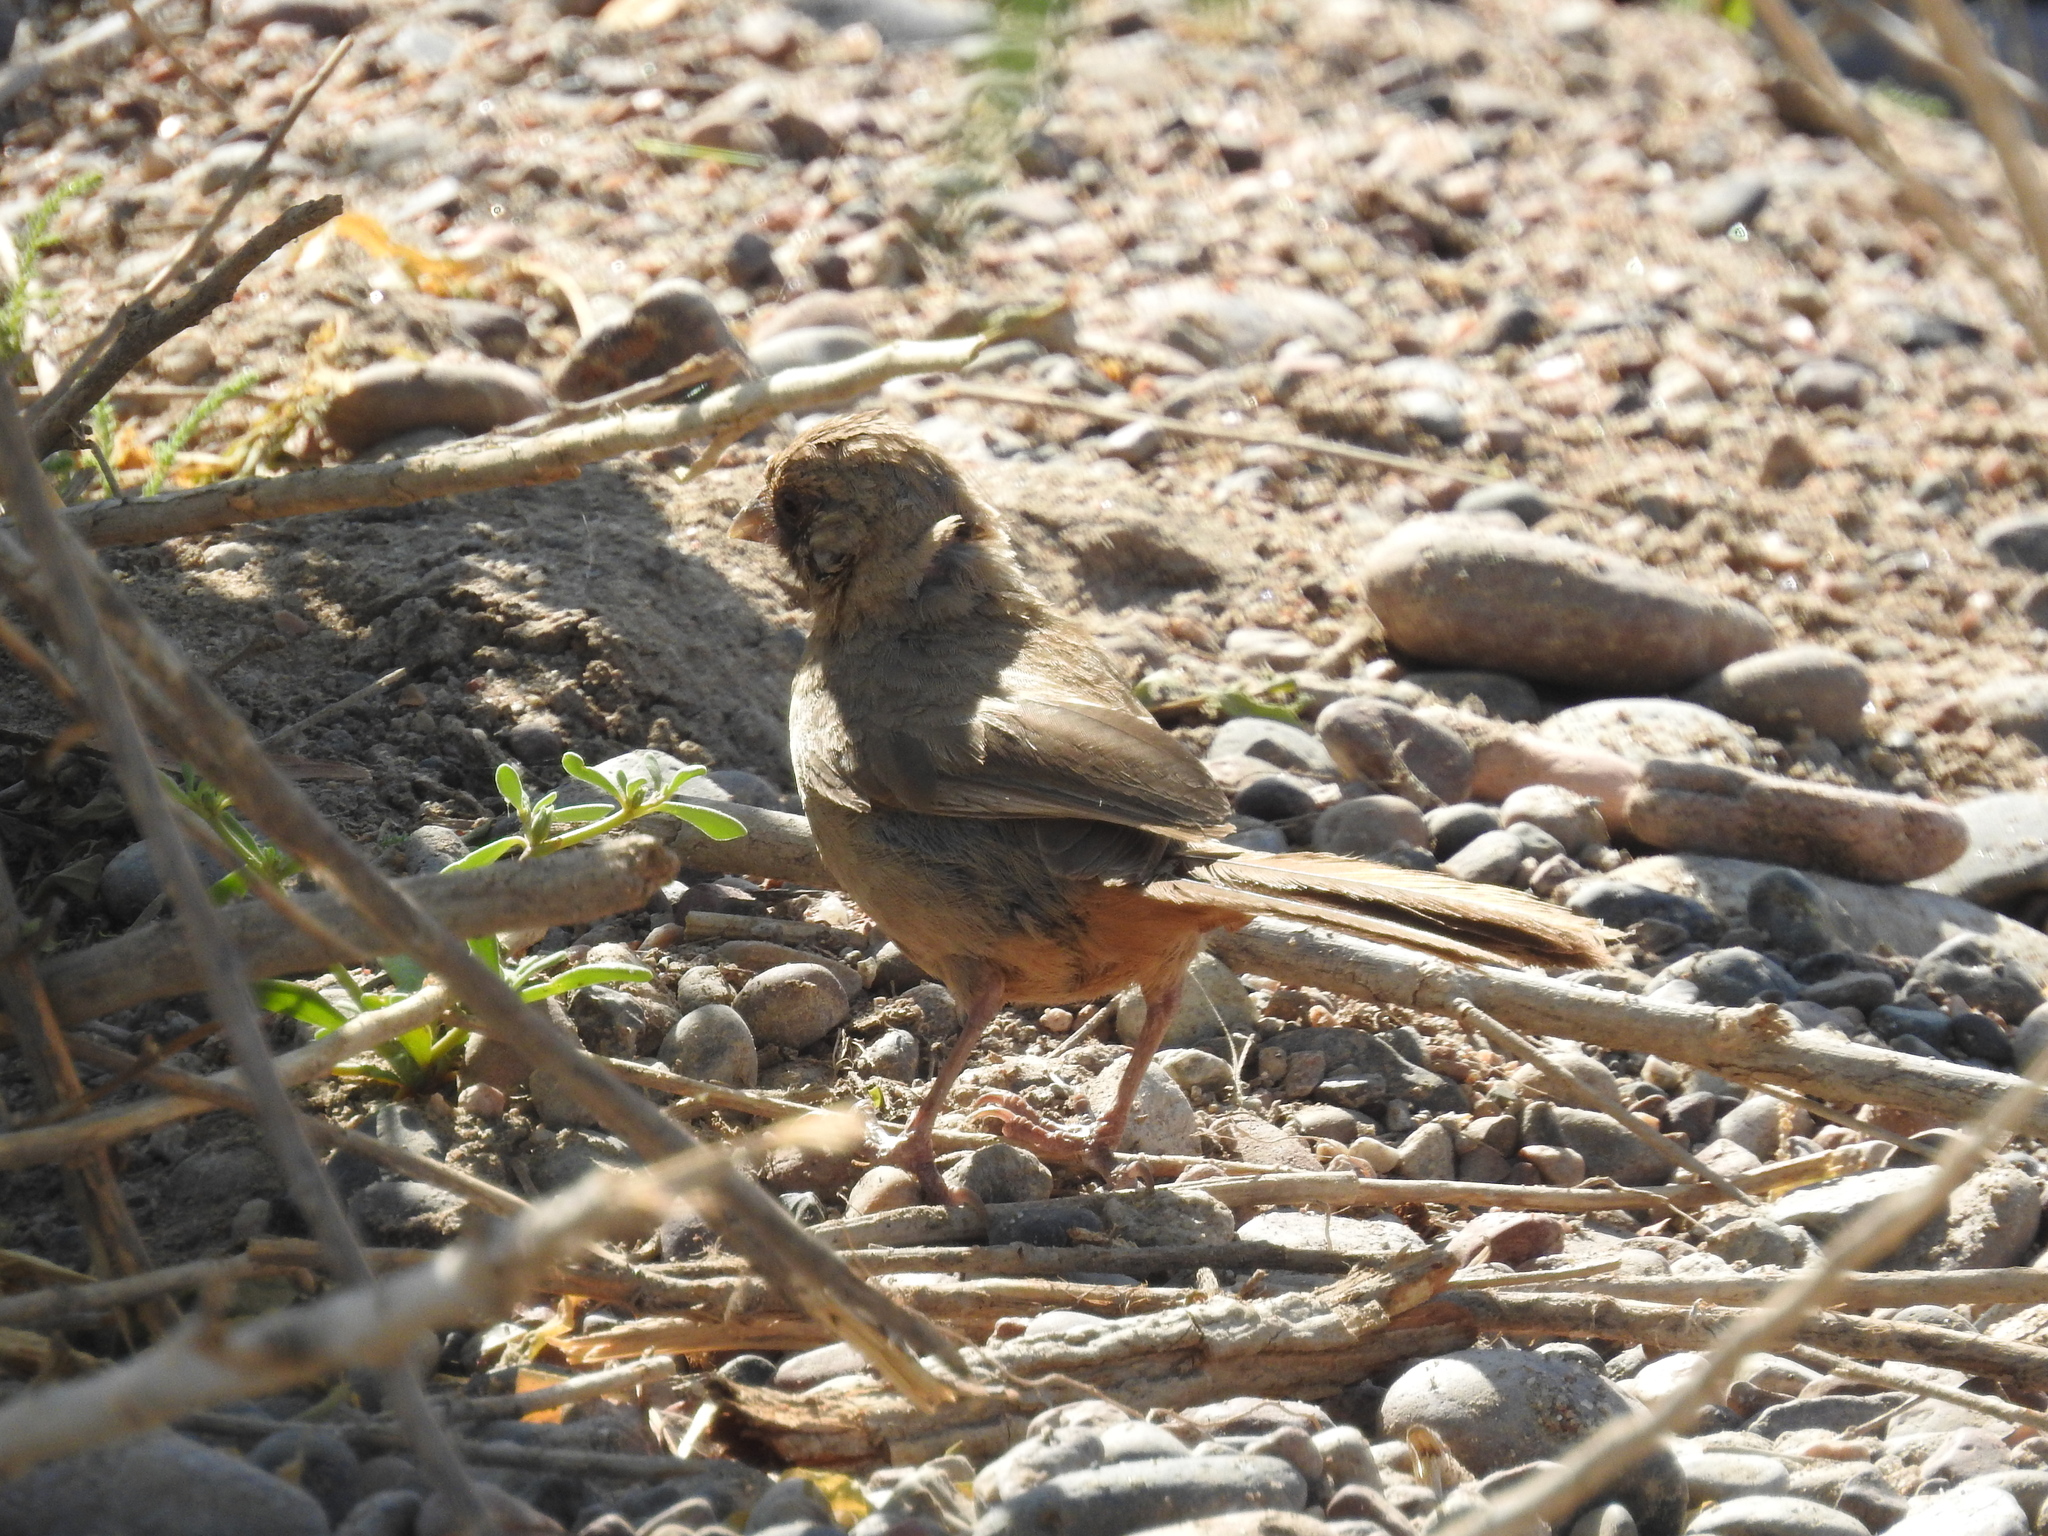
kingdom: Animalia
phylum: Chordata
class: Aves
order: Passeriformes
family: Passerellidae
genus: Melozone
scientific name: Melozone aberti
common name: Abert's towhee
